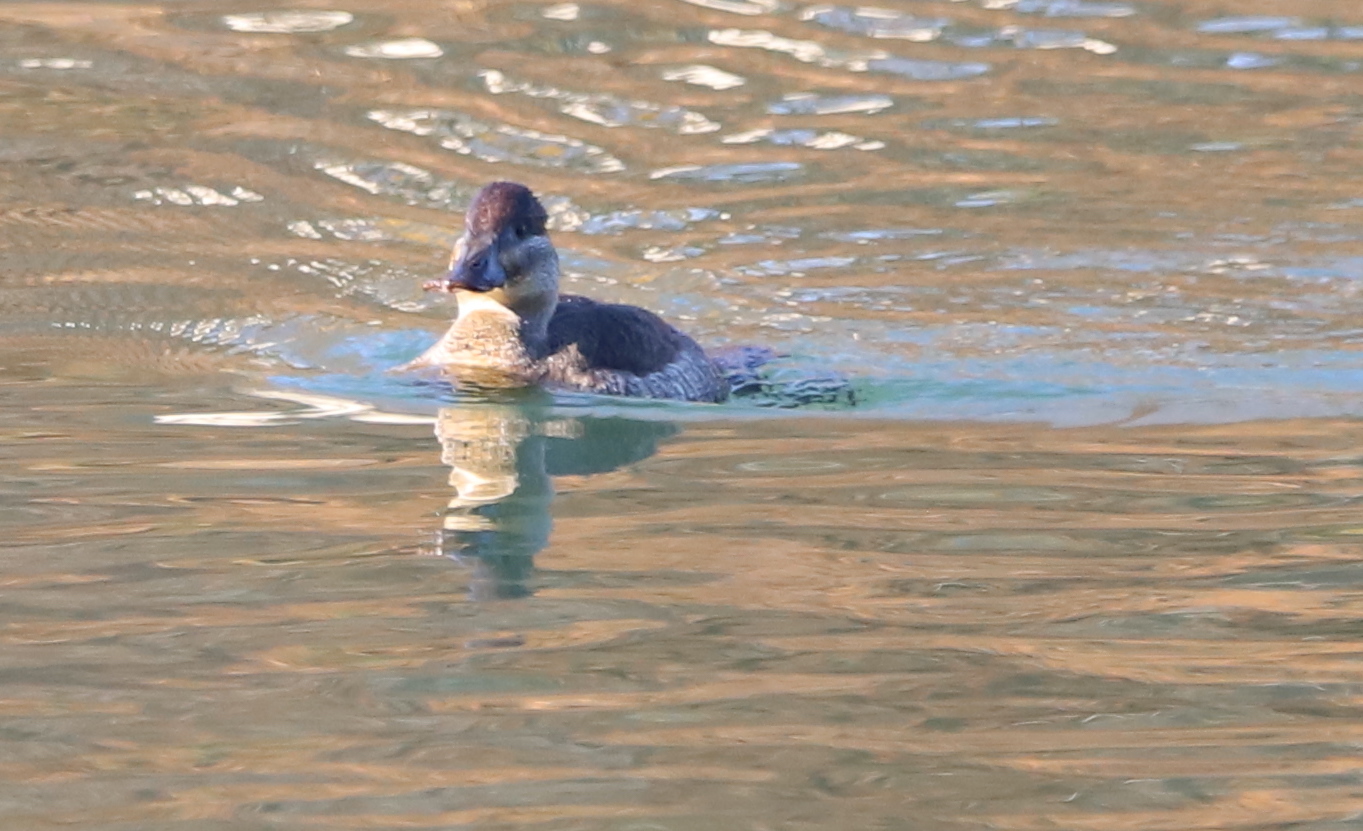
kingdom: Animalia
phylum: Chordata
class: Aves
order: Anseriformes
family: Anatidae
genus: Oxyura
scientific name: Oxyura jamaicensis
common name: Ruddy duck
